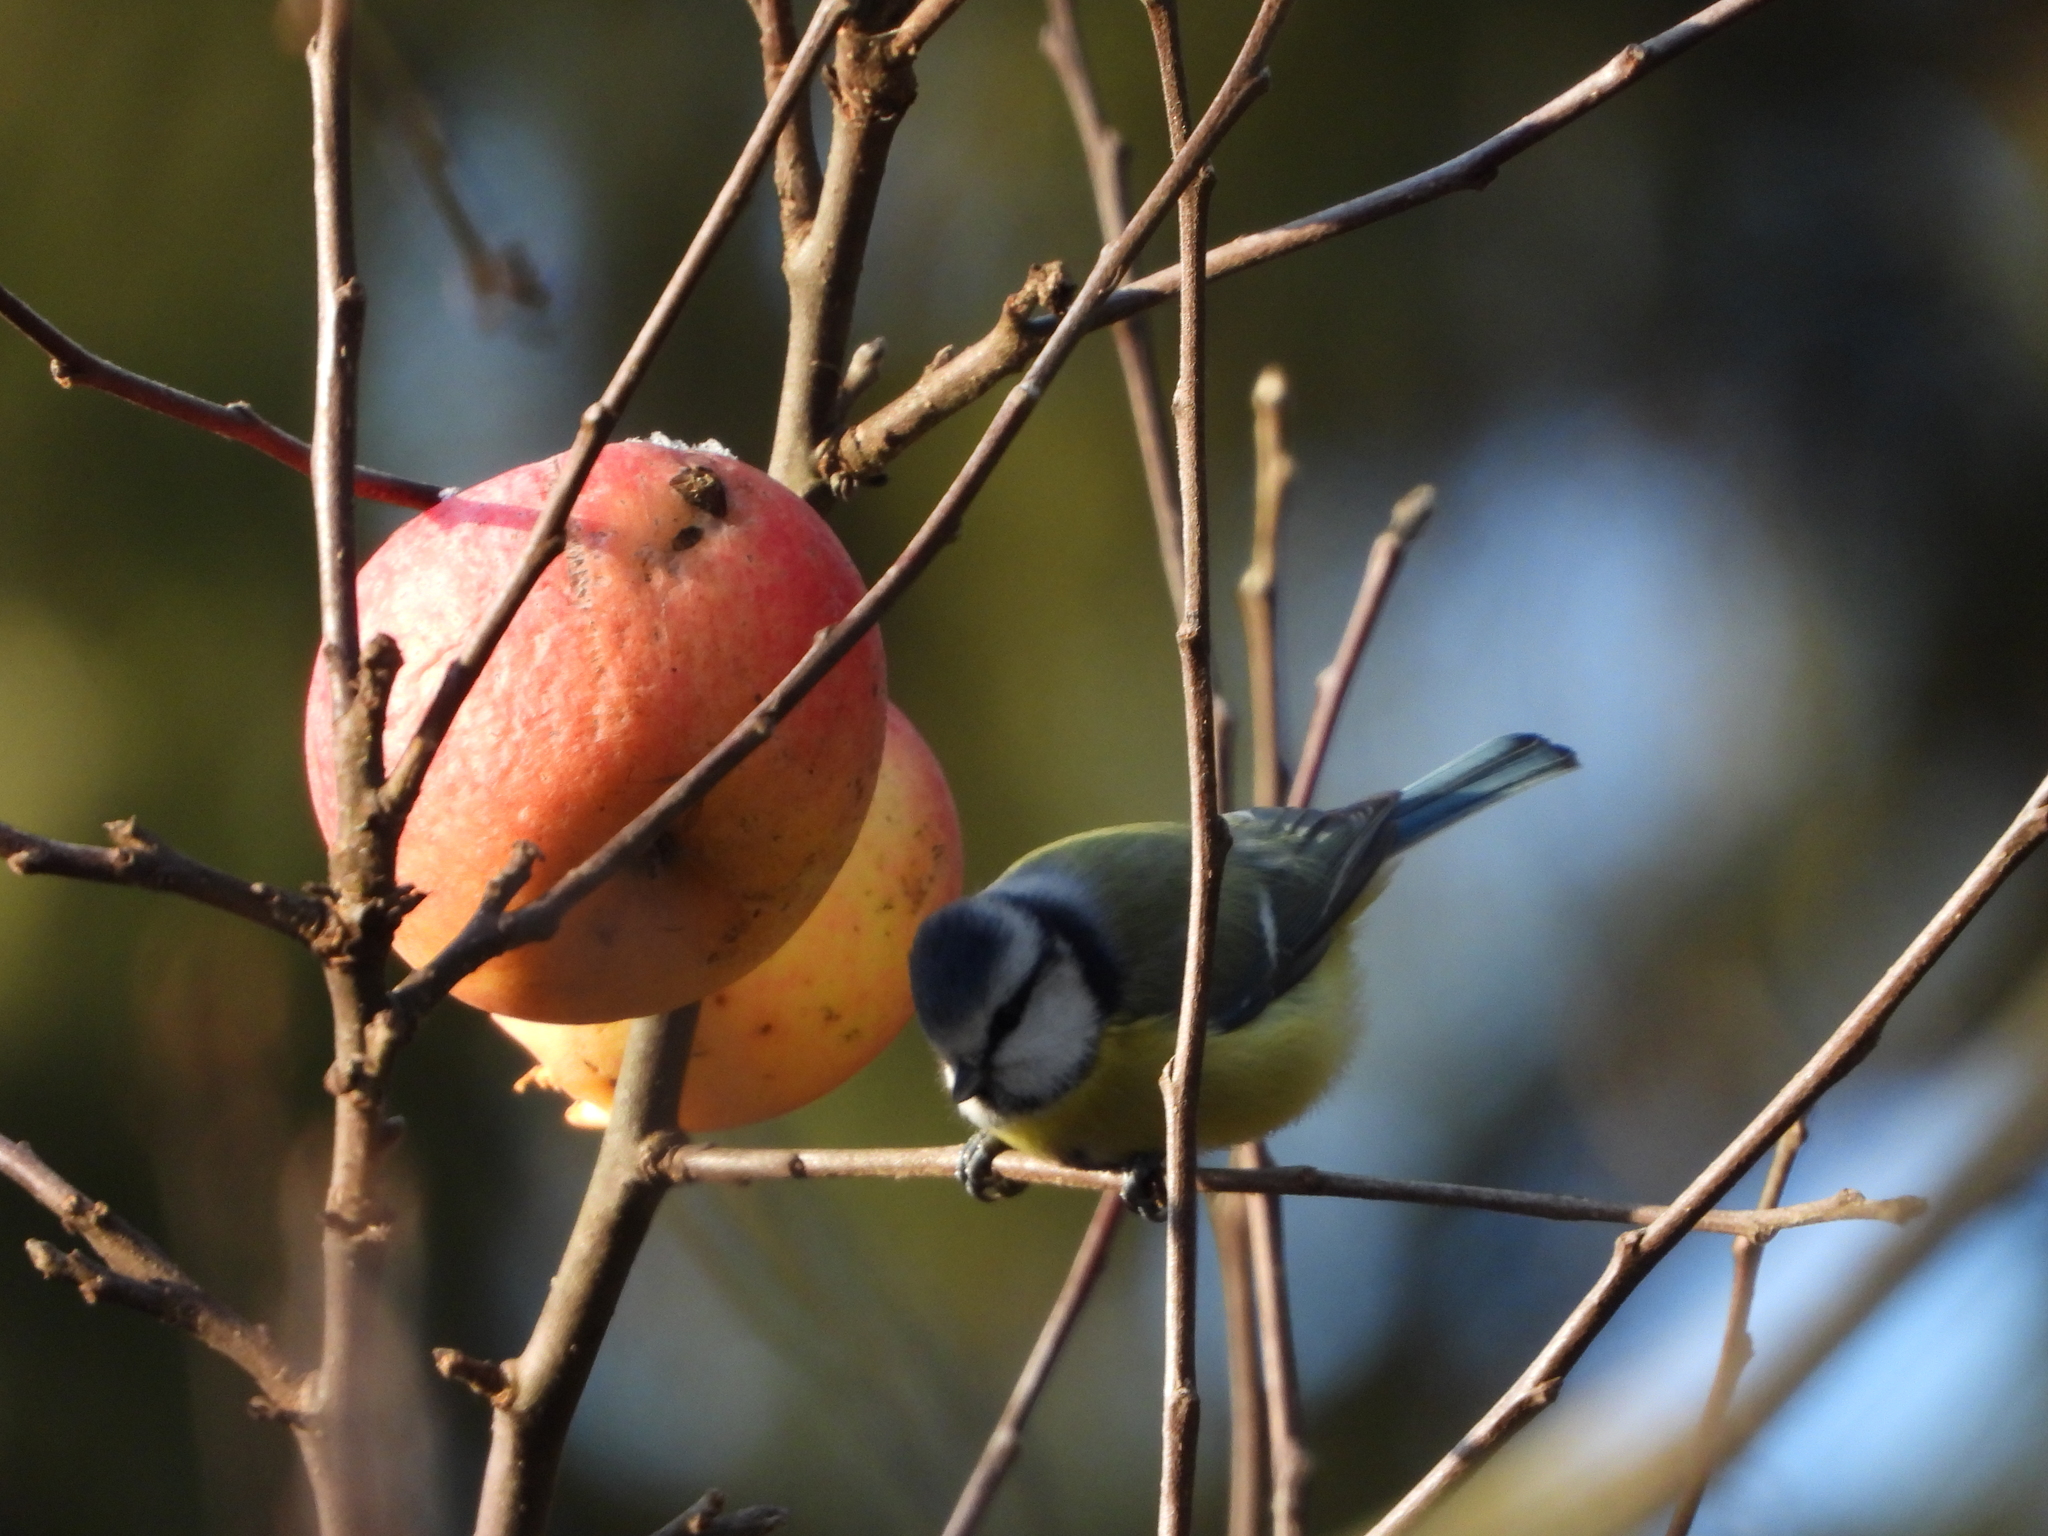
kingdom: Animalia
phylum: Chordata
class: Aves
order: Passeriformes
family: Paridae
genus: Cyanistes
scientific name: Cyanistes caeruleus
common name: Eurasian blue tit
